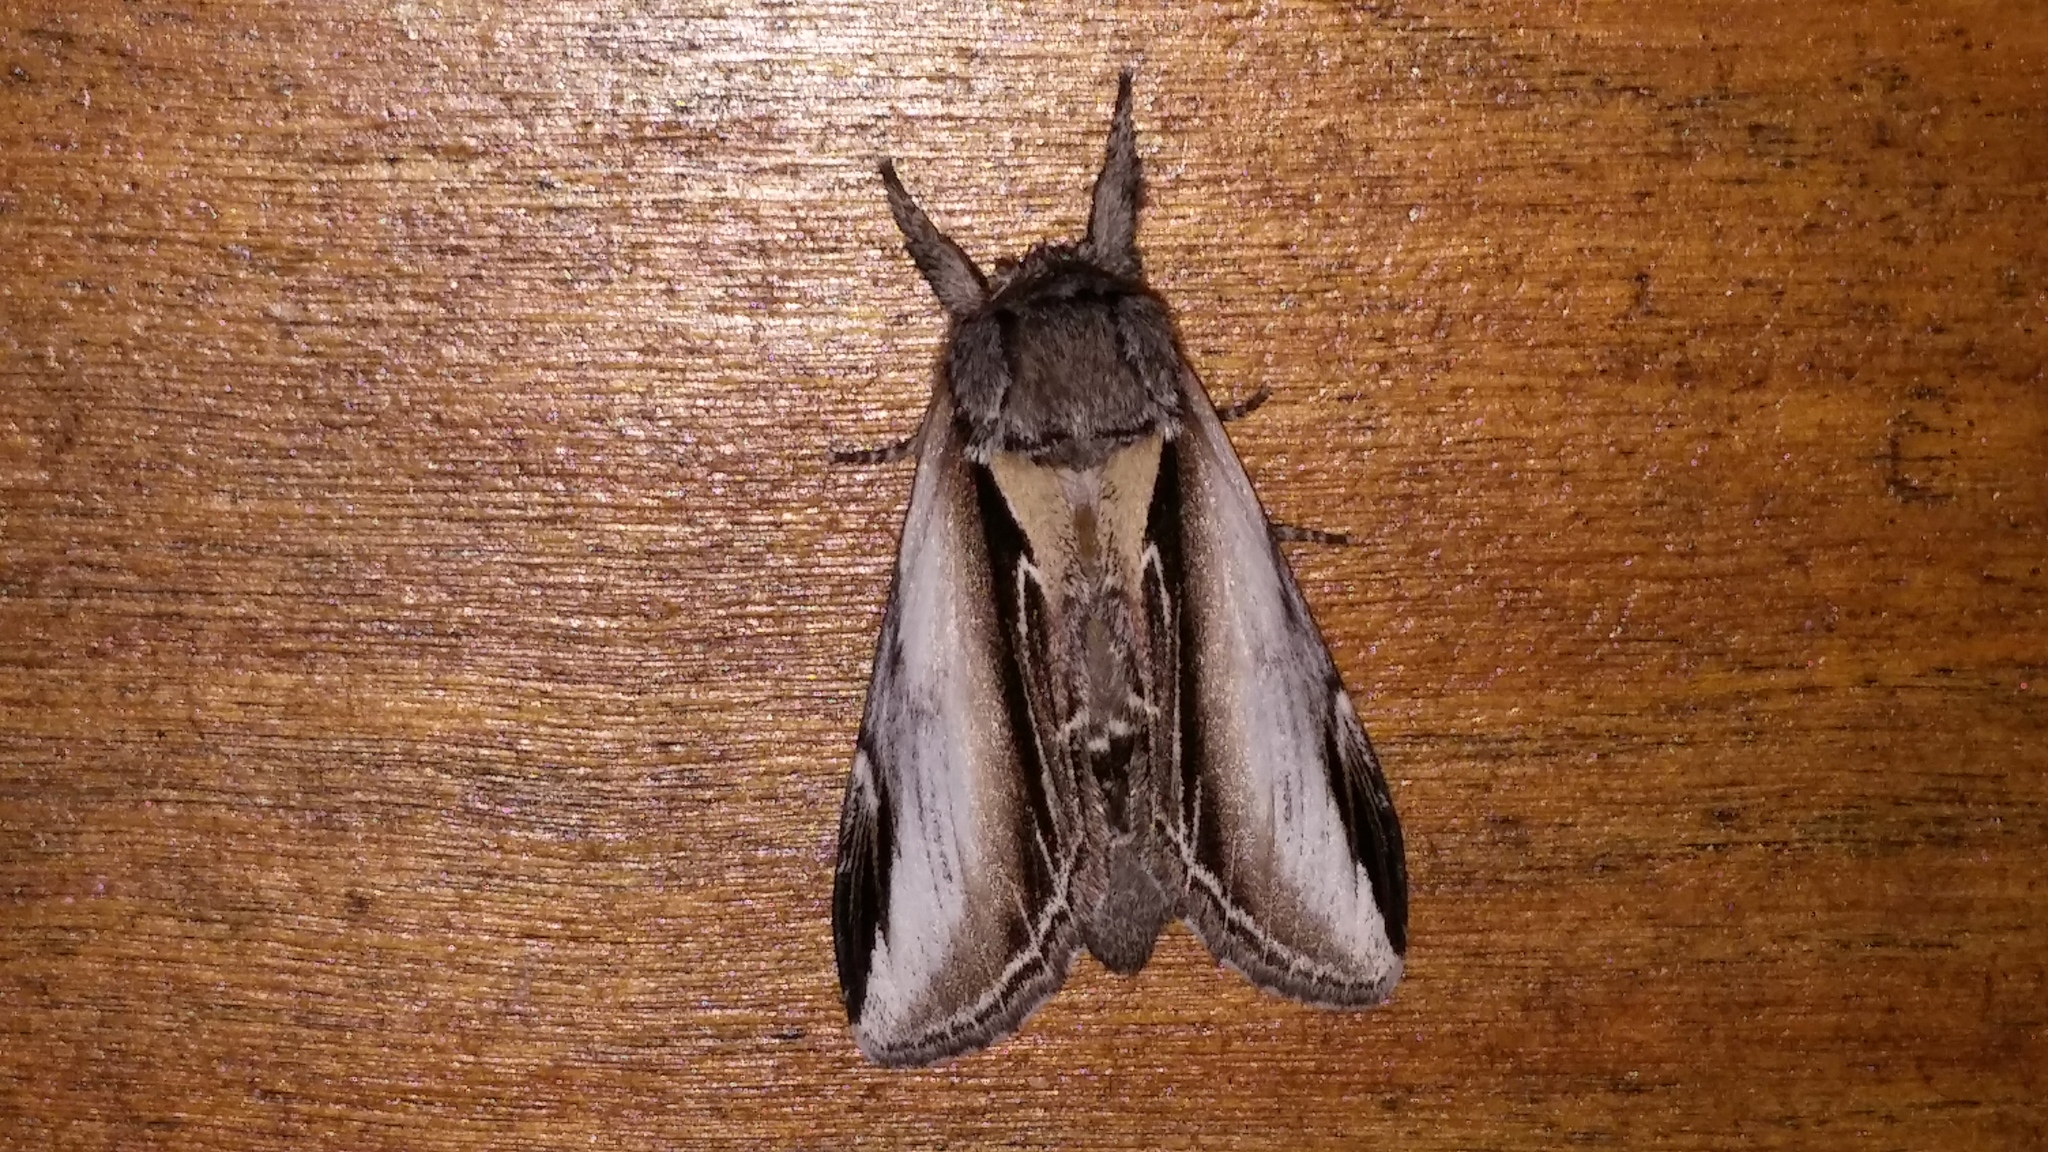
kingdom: Animalia
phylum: Arthropoda
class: Insecta
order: Lepidoptera
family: Notodontidae
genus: Pheosia
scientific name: Pheosia rimosa
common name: Black-rimmed prominent
